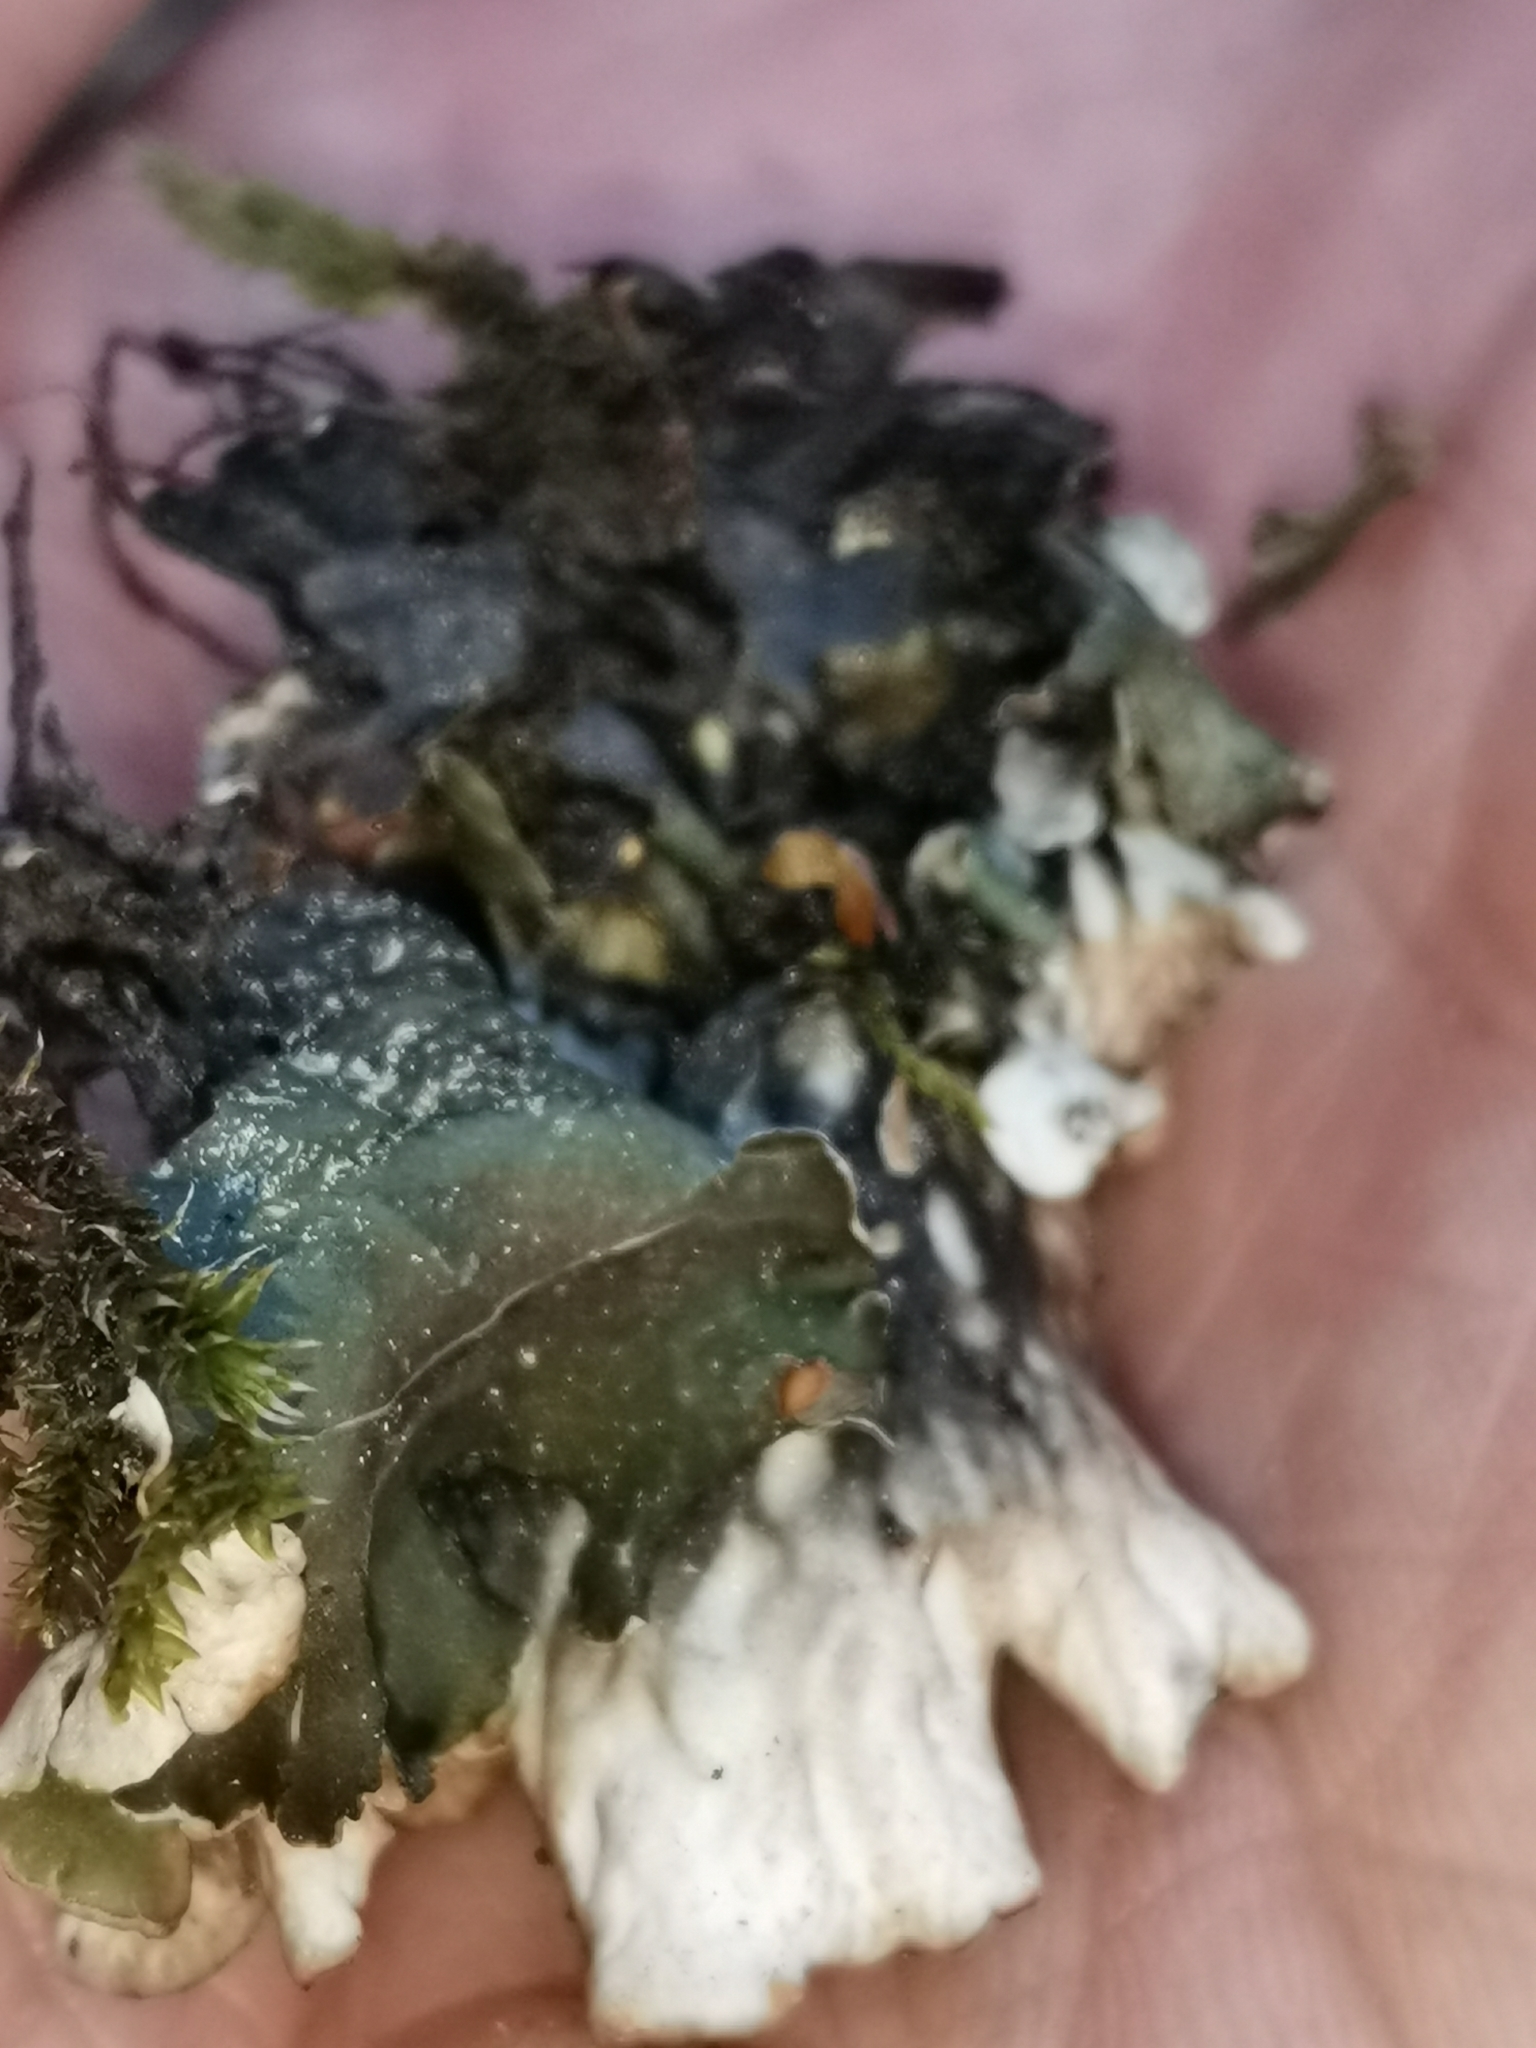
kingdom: Fungi
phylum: Ascomycota
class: Lecanoromycetes
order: Peltigerales
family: Peltigeraceae
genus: Peltigera
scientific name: Peltigera malacea
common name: Matt felt lichen
